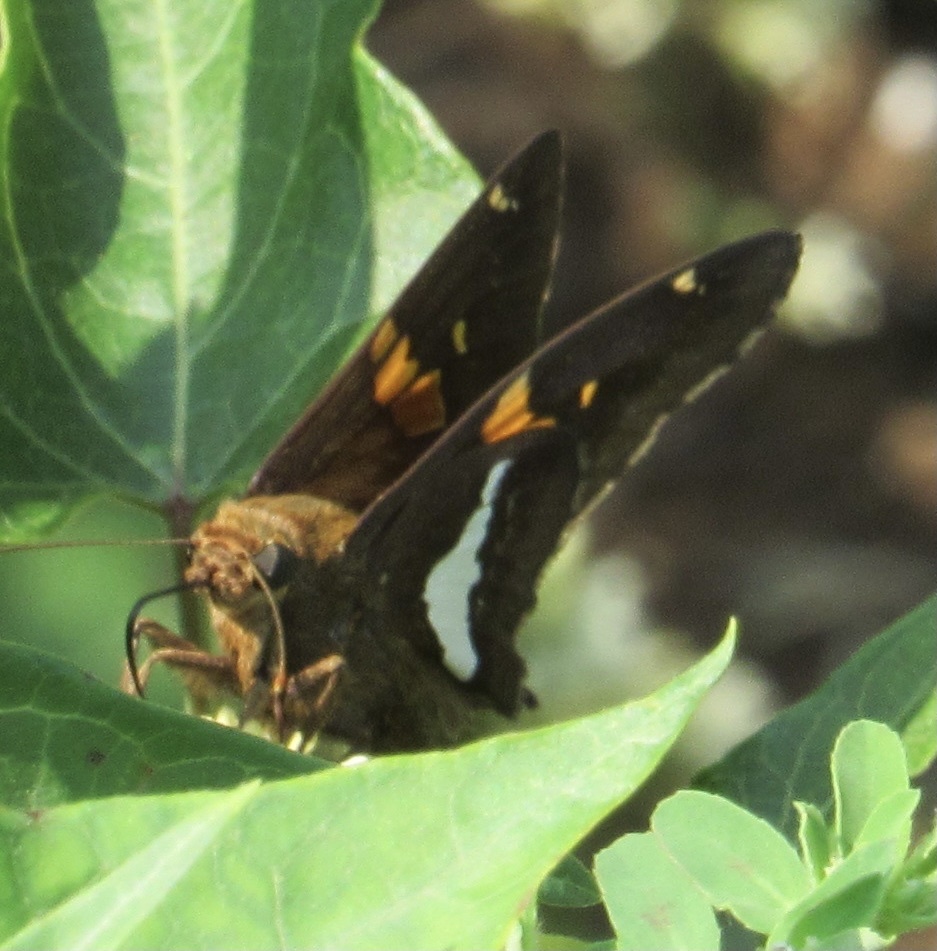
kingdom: Animalia
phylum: Arthropoda
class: Insecta
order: Lepidoptera
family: Hesperiidae
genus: Epargyreus
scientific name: Epargyreus clarus
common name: Silver-spotted skipper
